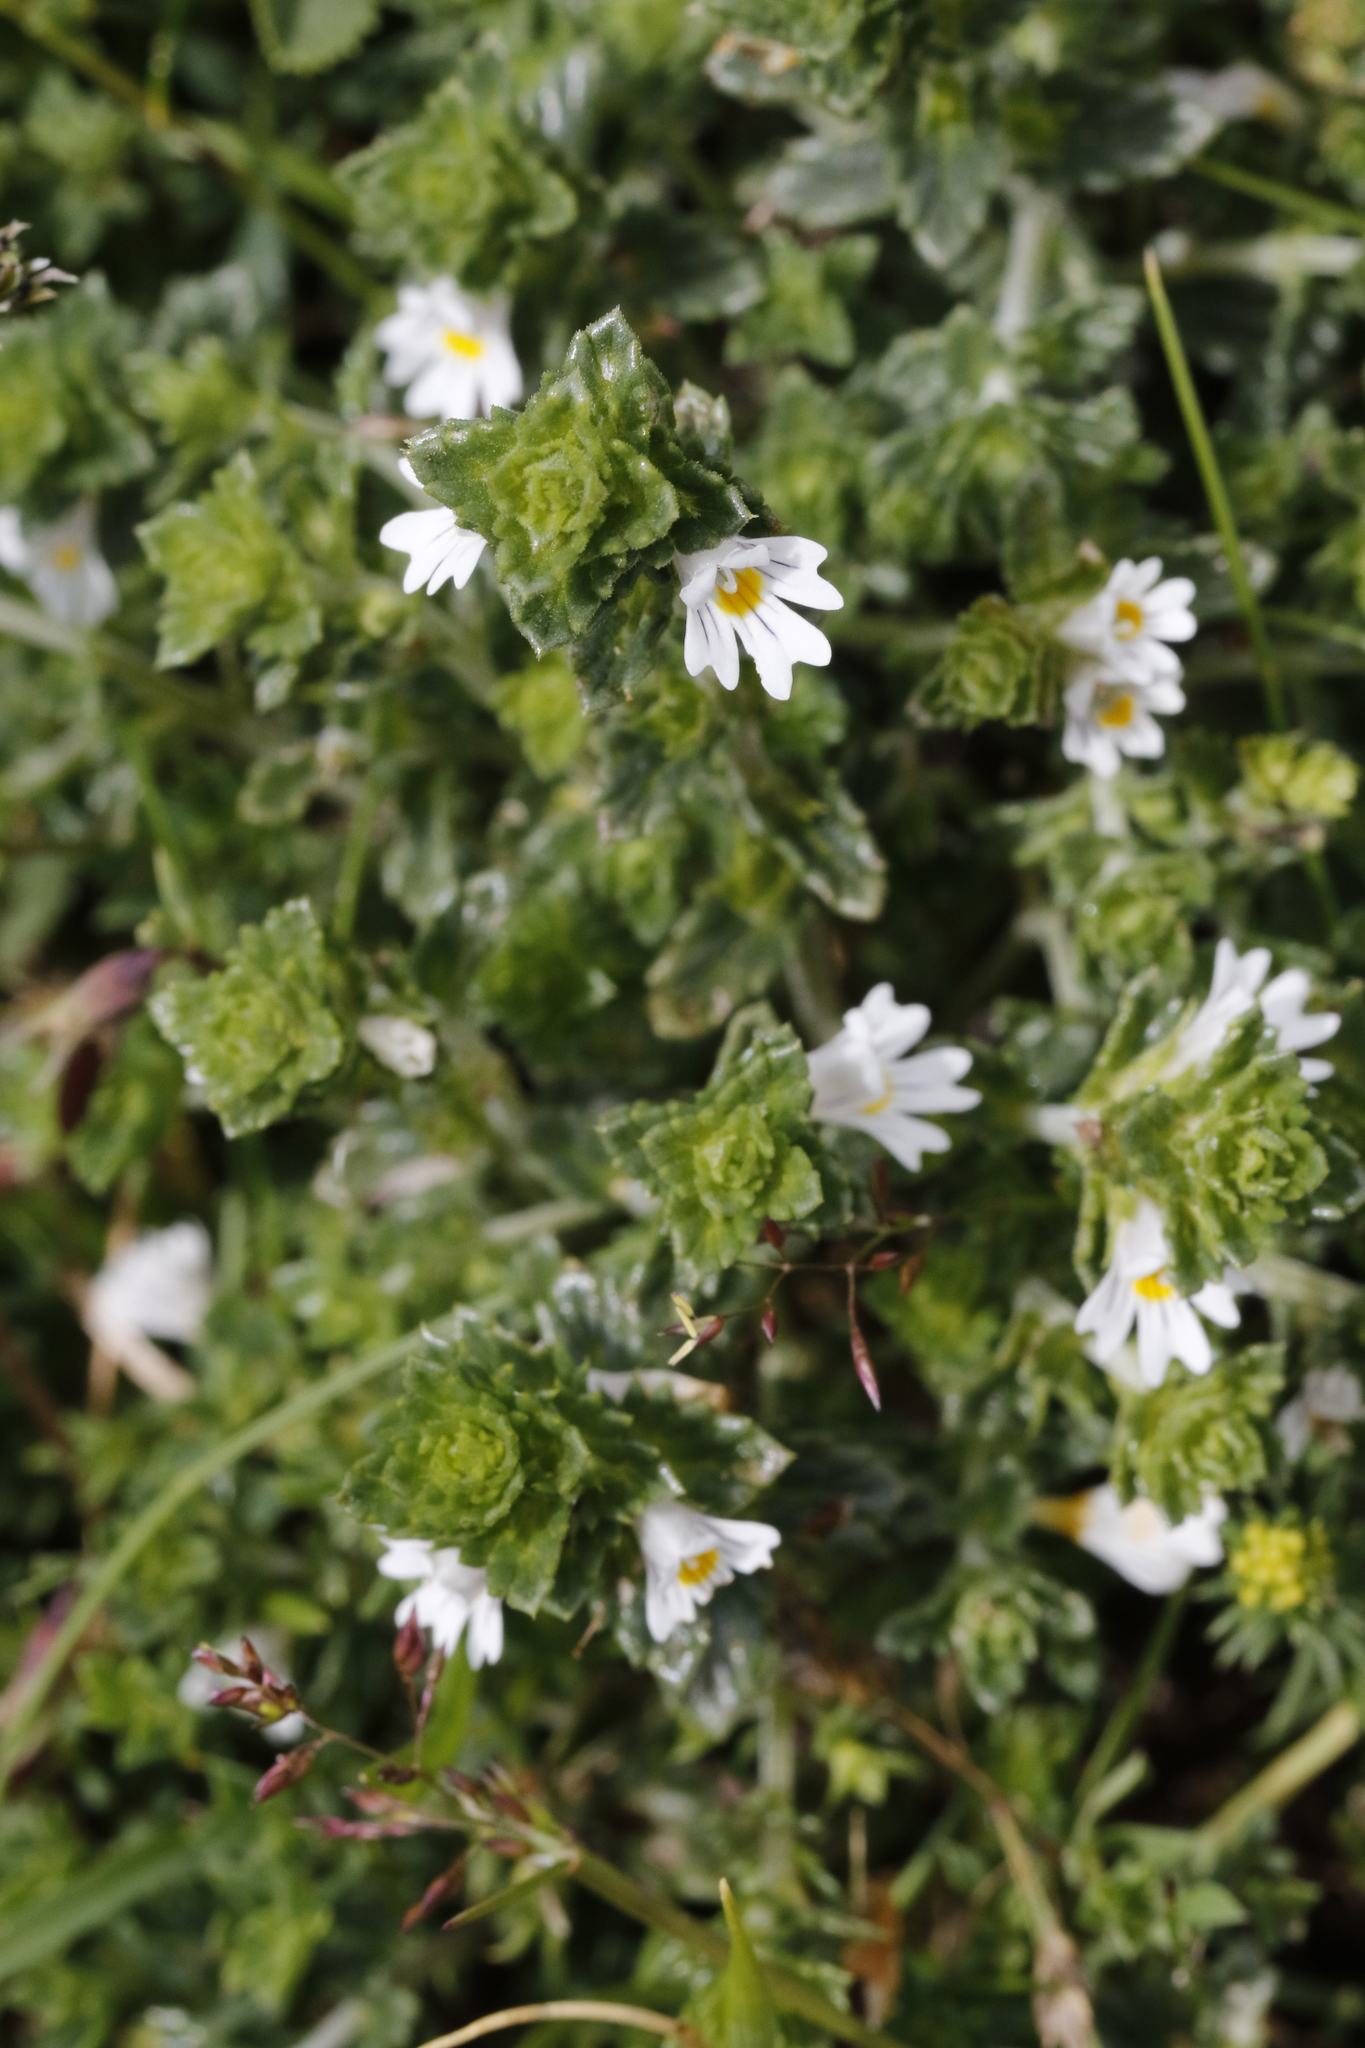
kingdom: Plantae
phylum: Tracheophyta
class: Magnoliopsida
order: Lamiales
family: Orobanchaceae
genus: Euphrasia
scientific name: Euphrasia nemorosa
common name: Common eyebright
